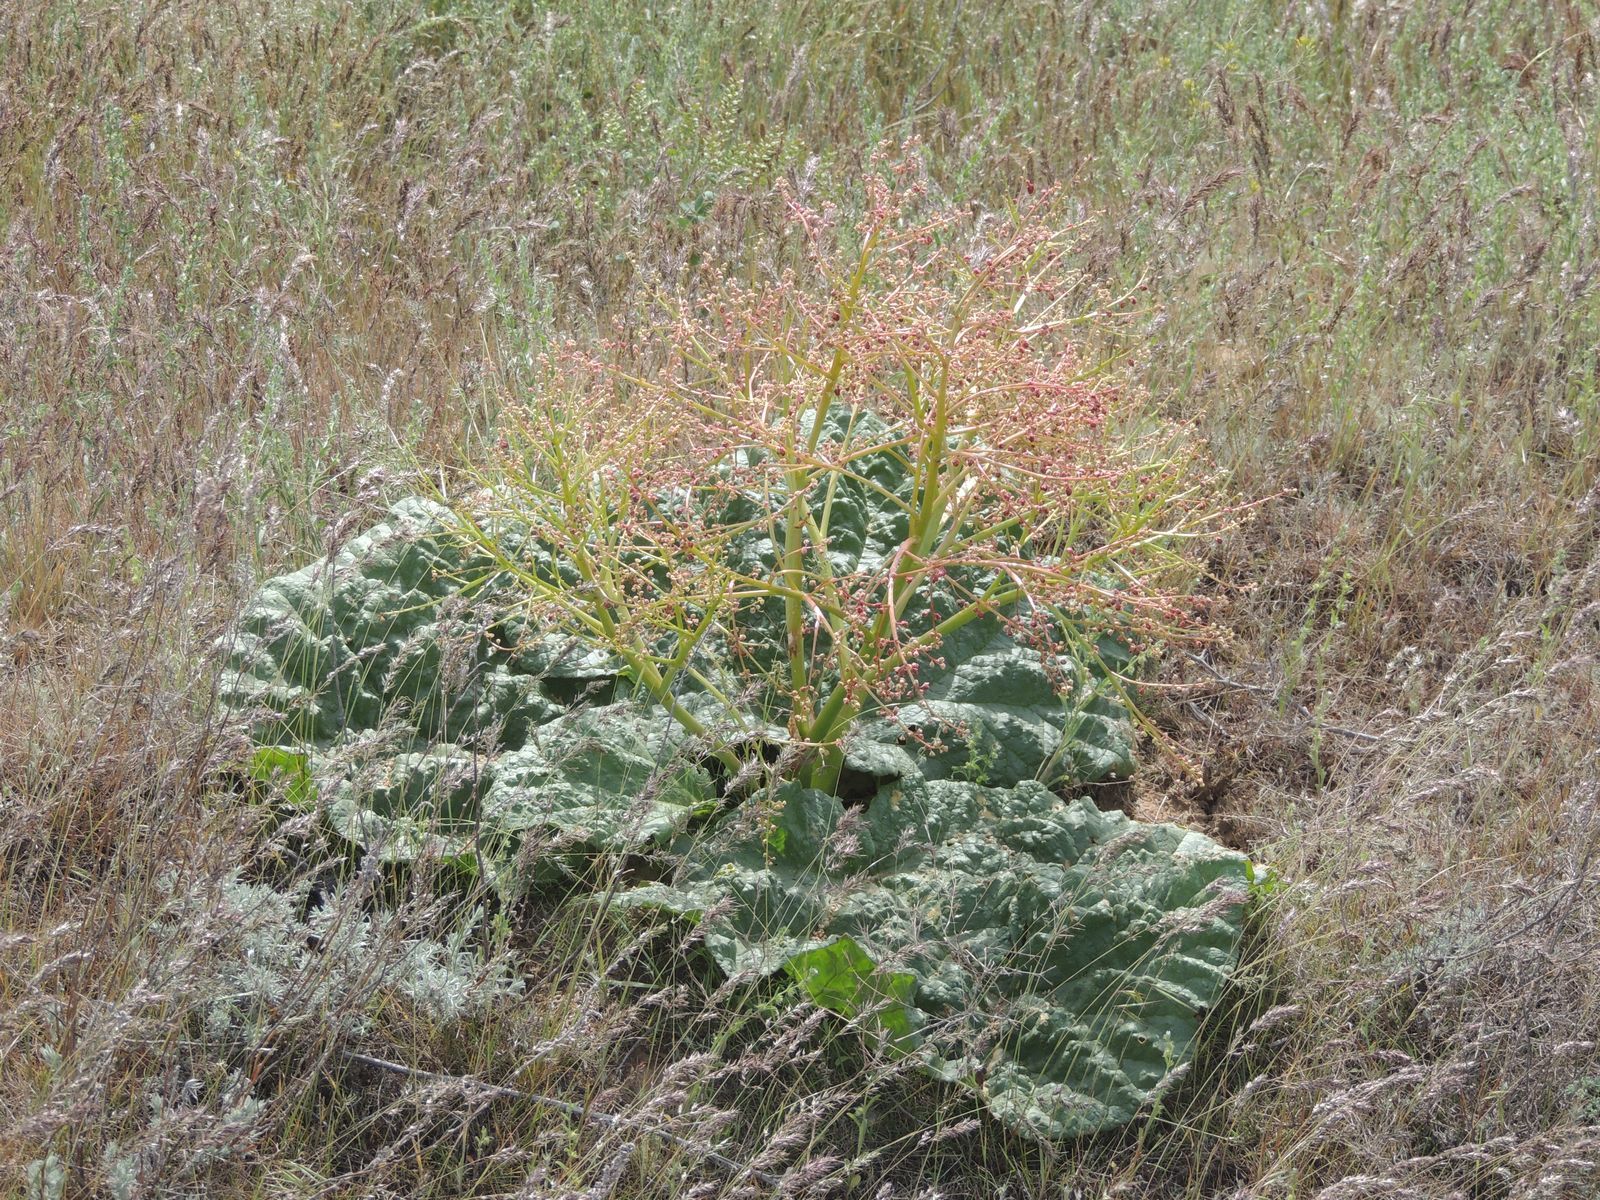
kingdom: Plantae
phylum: Tracheophyta
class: Magnoliopsida
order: Caryophyllales
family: Polygonaceae
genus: Rheum
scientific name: Rheum tataricum
